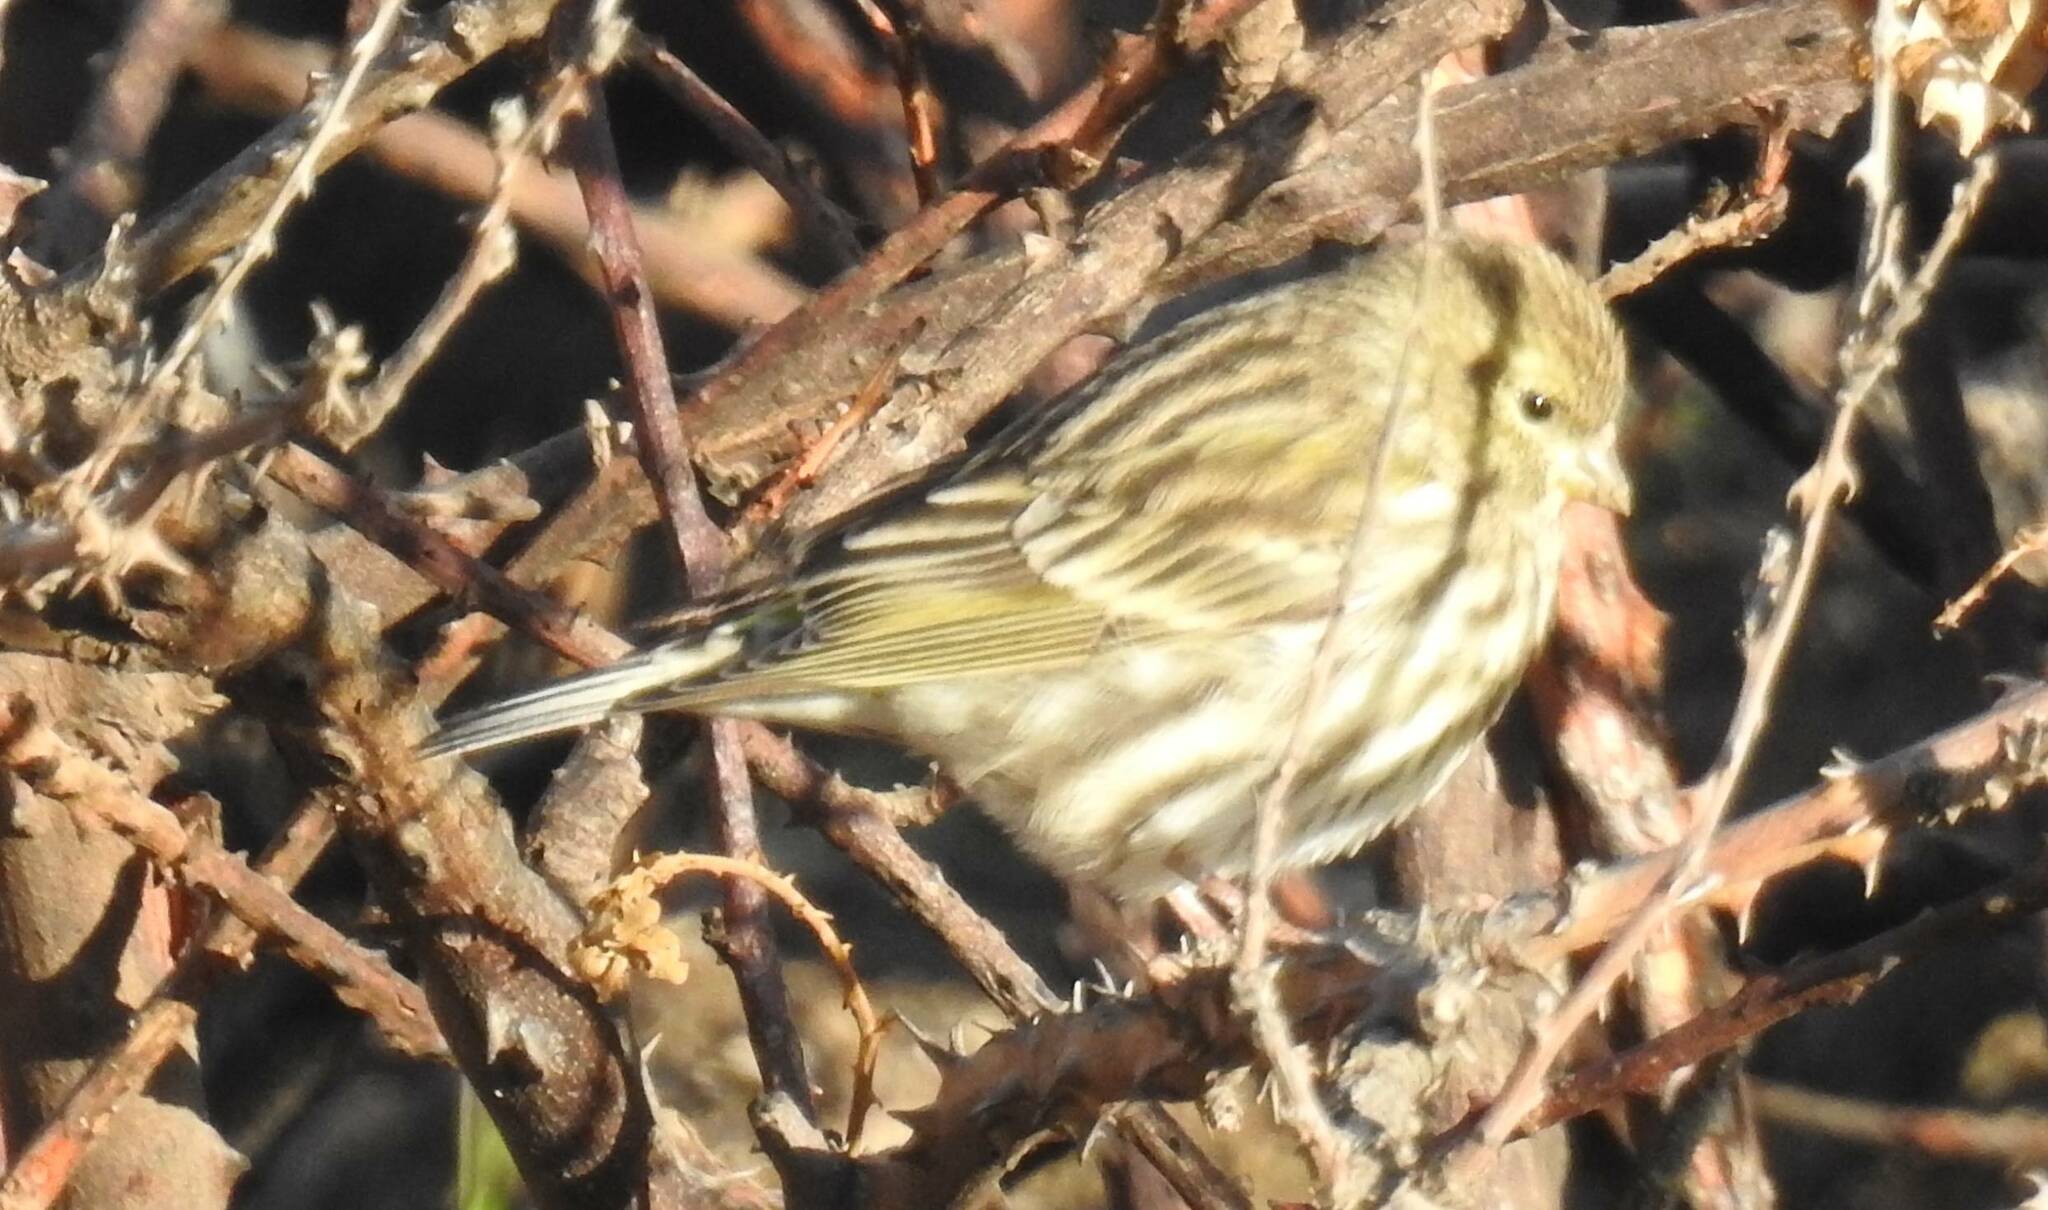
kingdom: Animalia
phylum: Chordata
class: Aves
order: Passeriformes
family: Fringillidae
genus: Serinus
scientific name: Serinus serinus
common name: European serin
